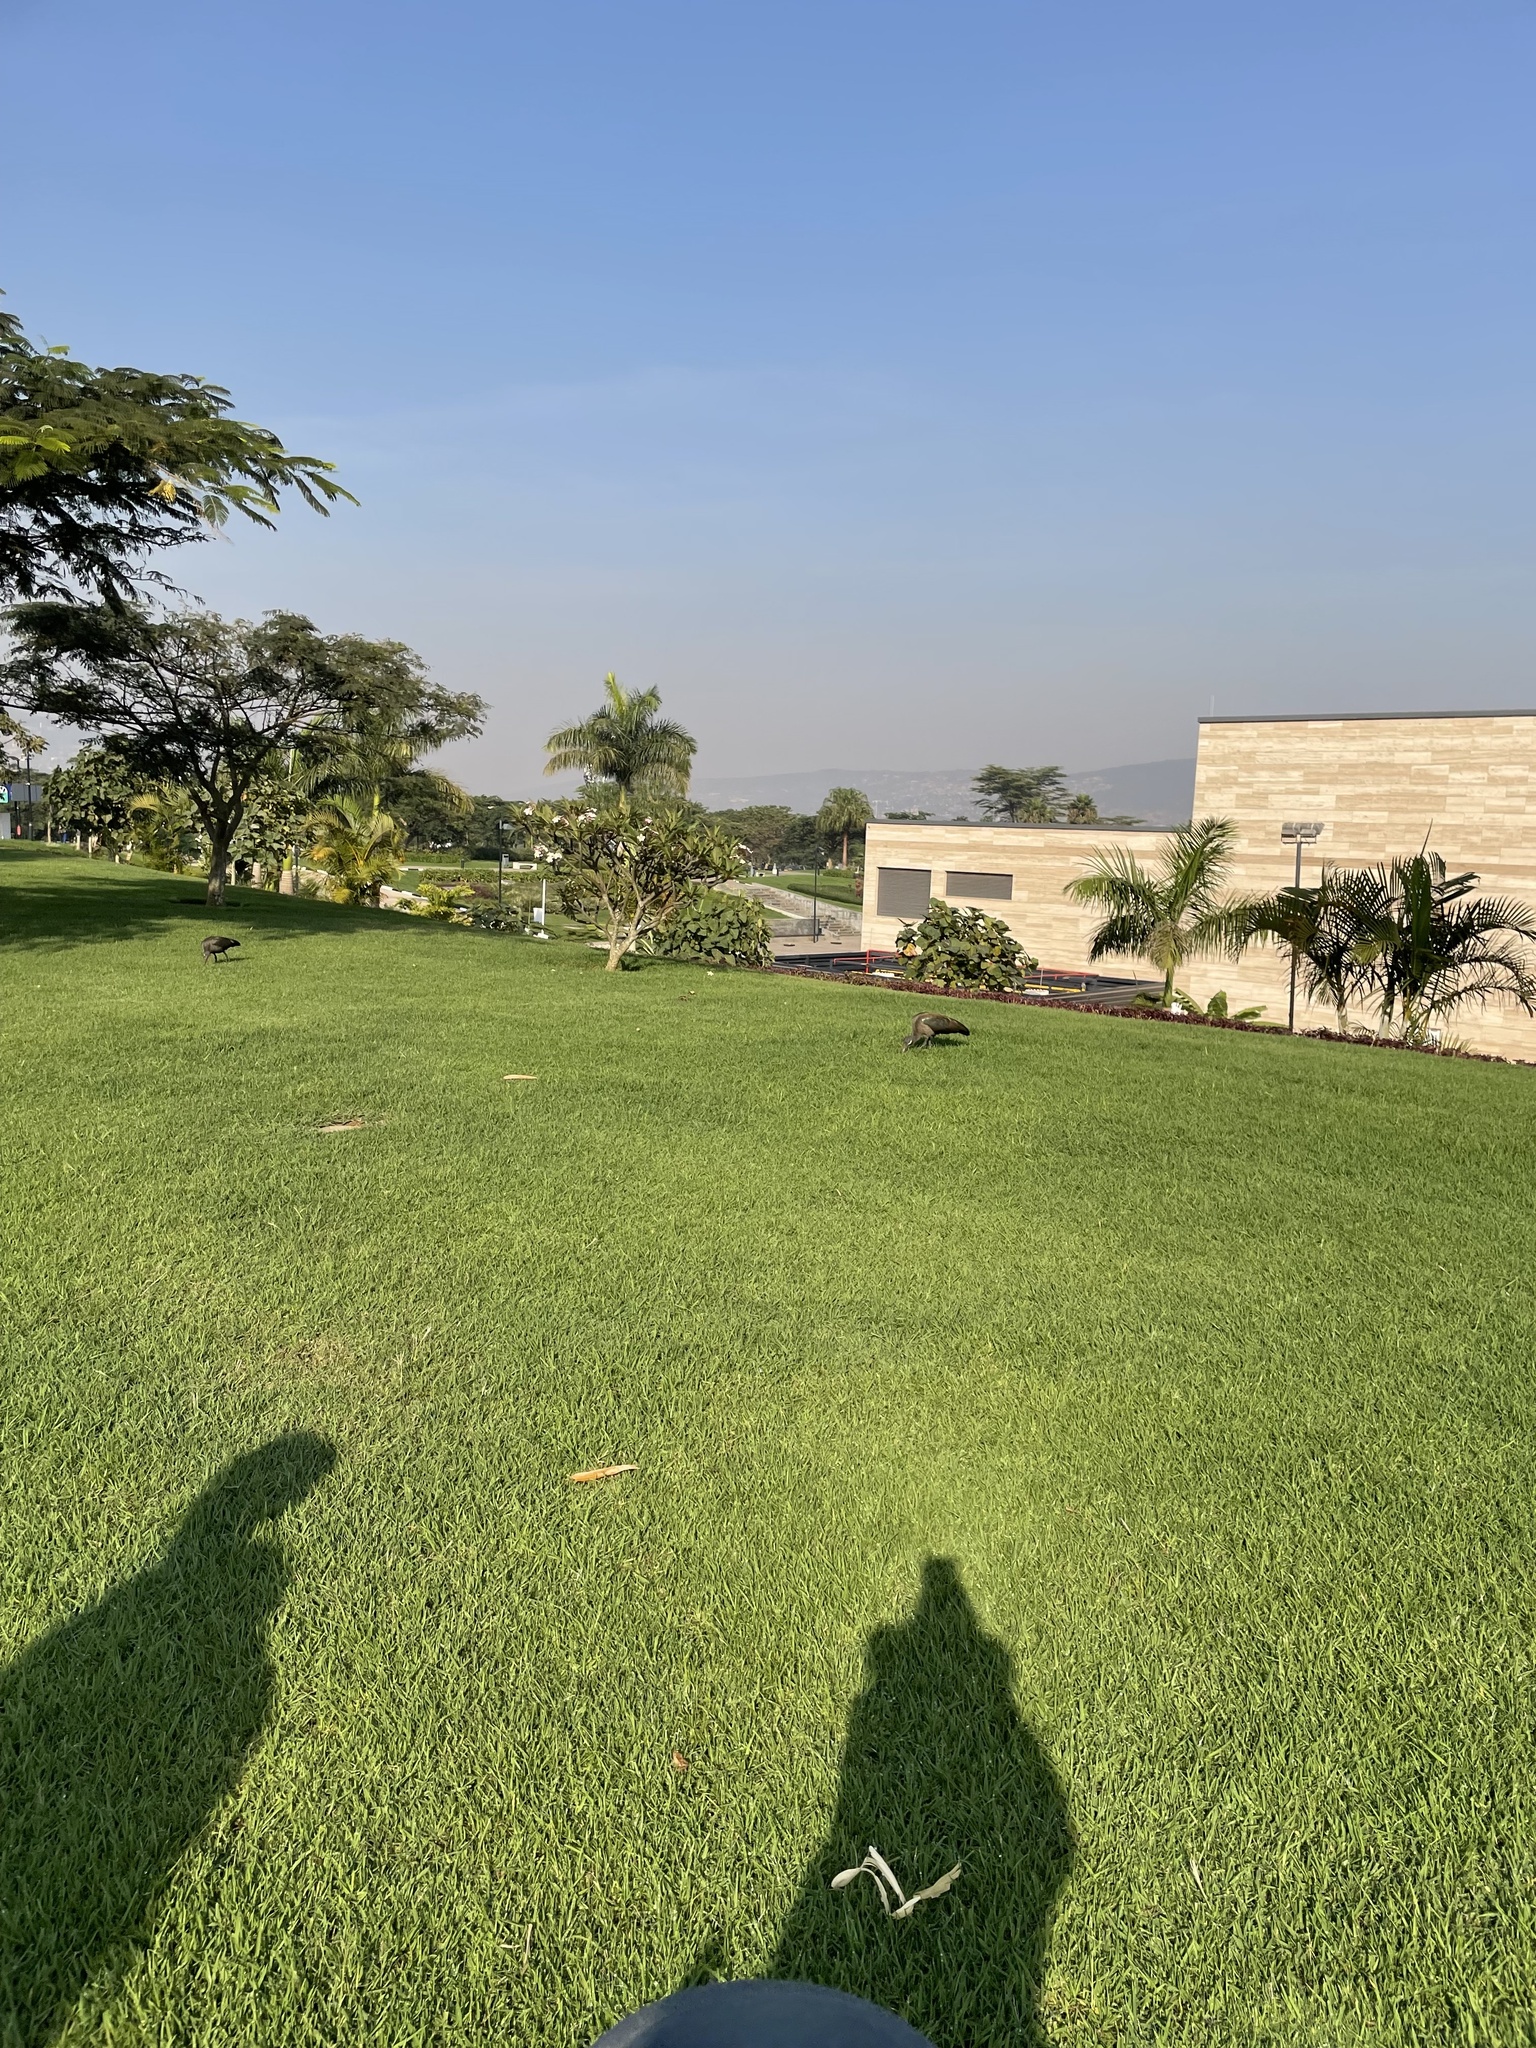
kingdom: Animalia
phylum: Chordata
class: Aves
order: Pelecaniformes
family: Threskiornithidae
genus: Bostrychia
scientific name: Bostrychia hagedash
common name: Hadada ibis
